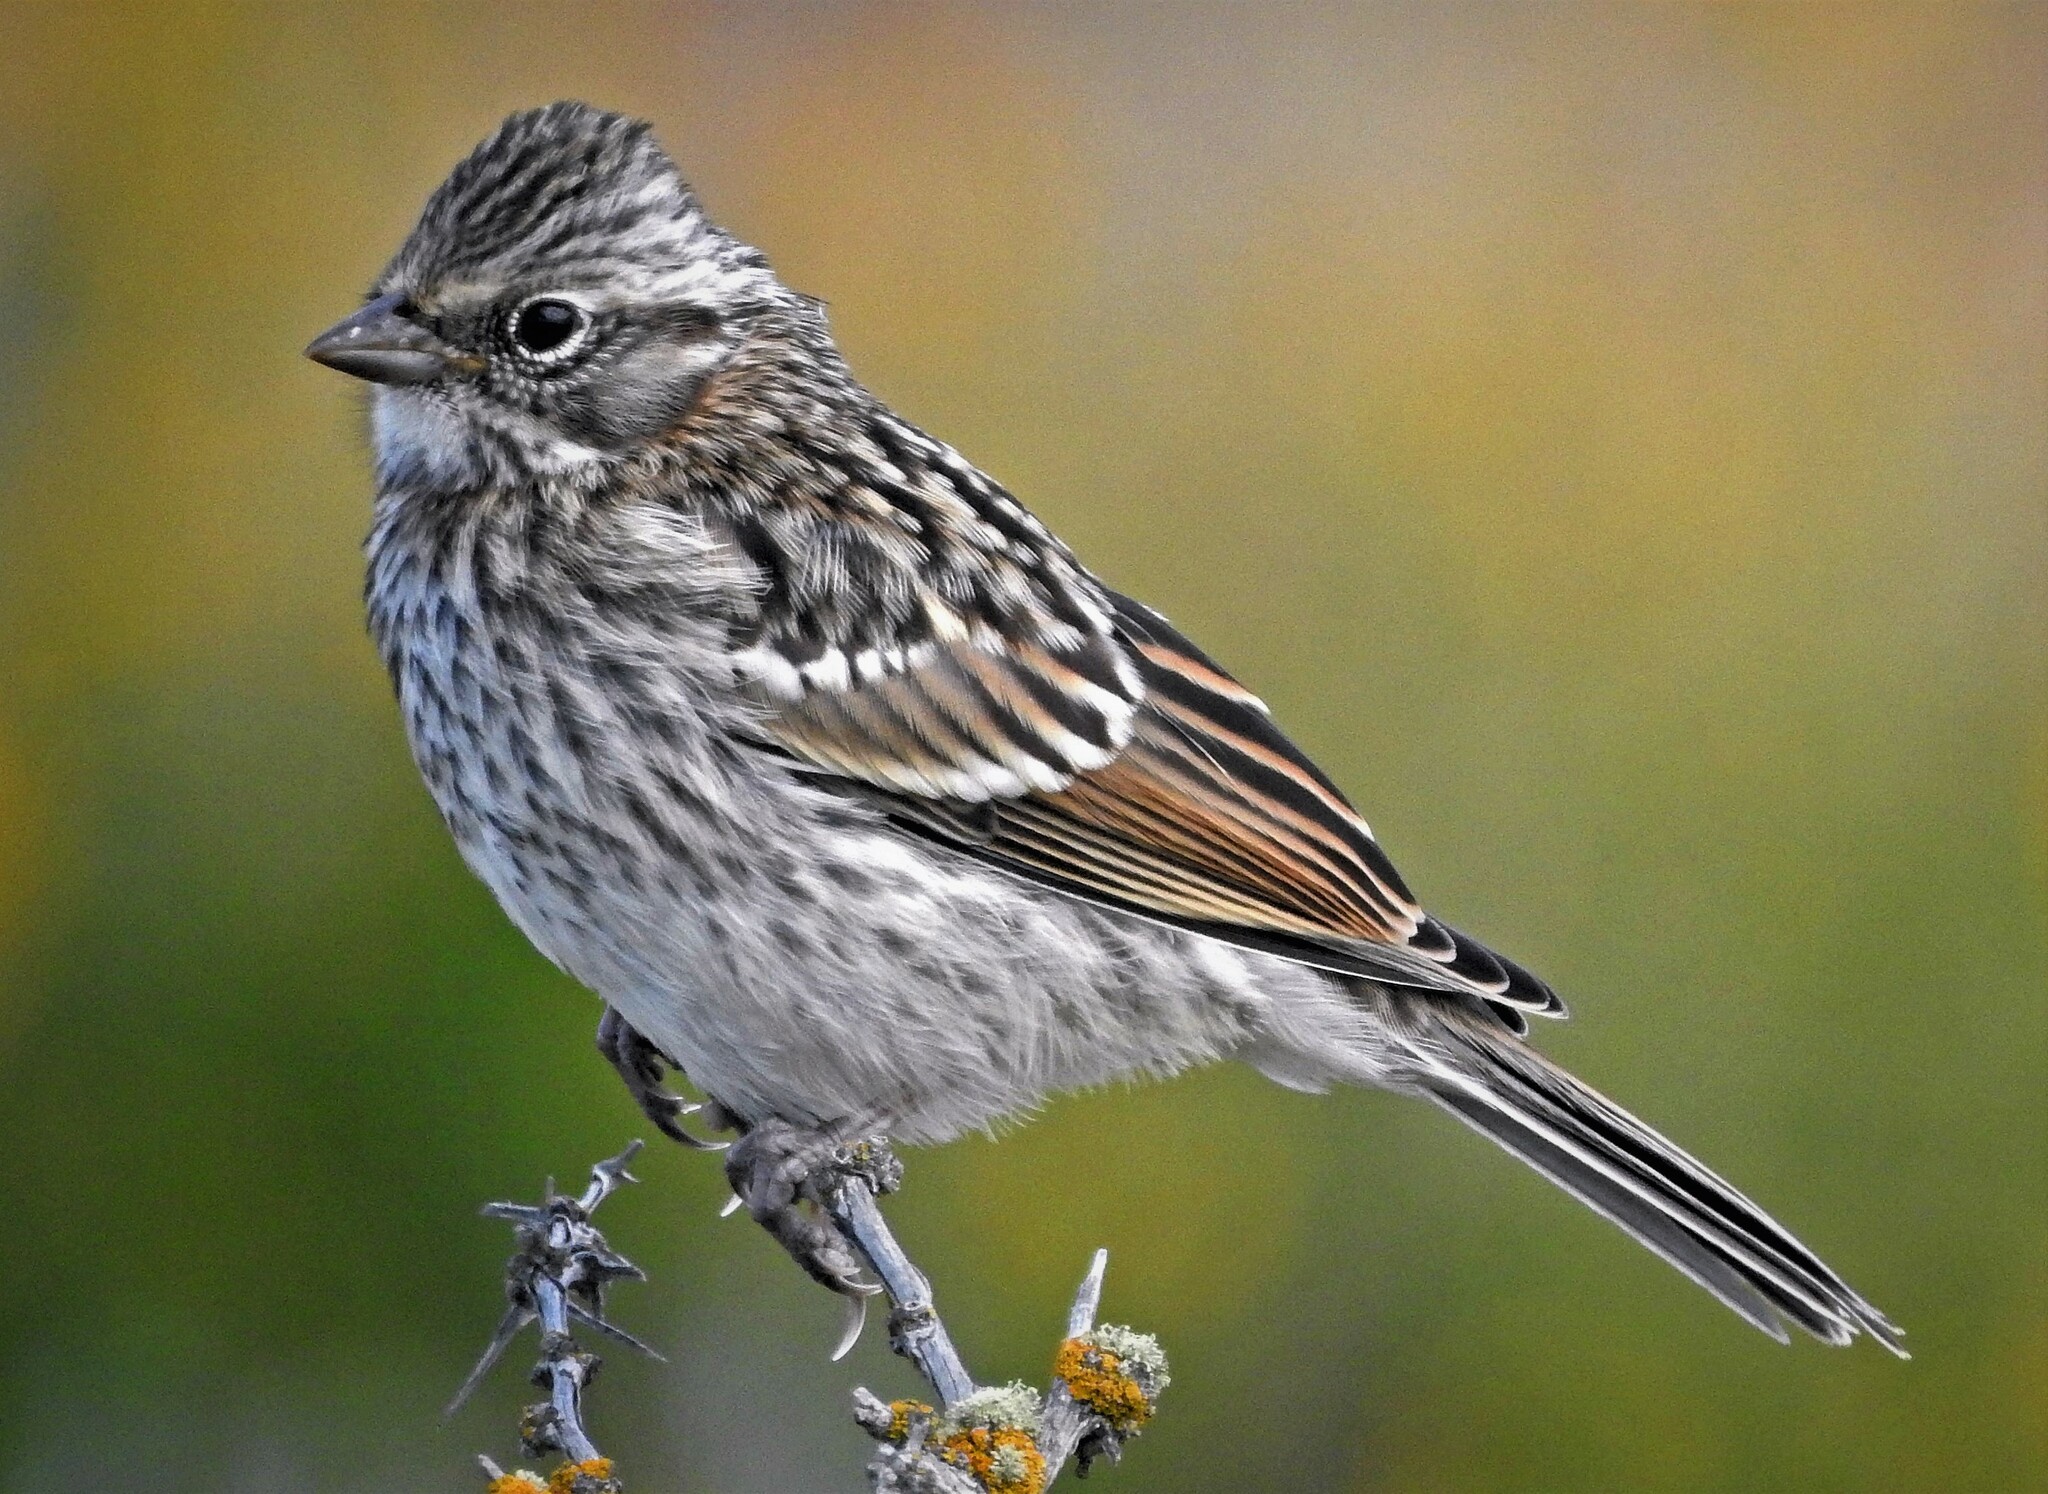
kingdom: Animalia
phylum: Chordata
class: Aves
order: Passeriformes
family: Passerellidae
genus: Zonotrichia
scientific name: Zonotrichia capensis
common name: Rufous-collared sparrow
